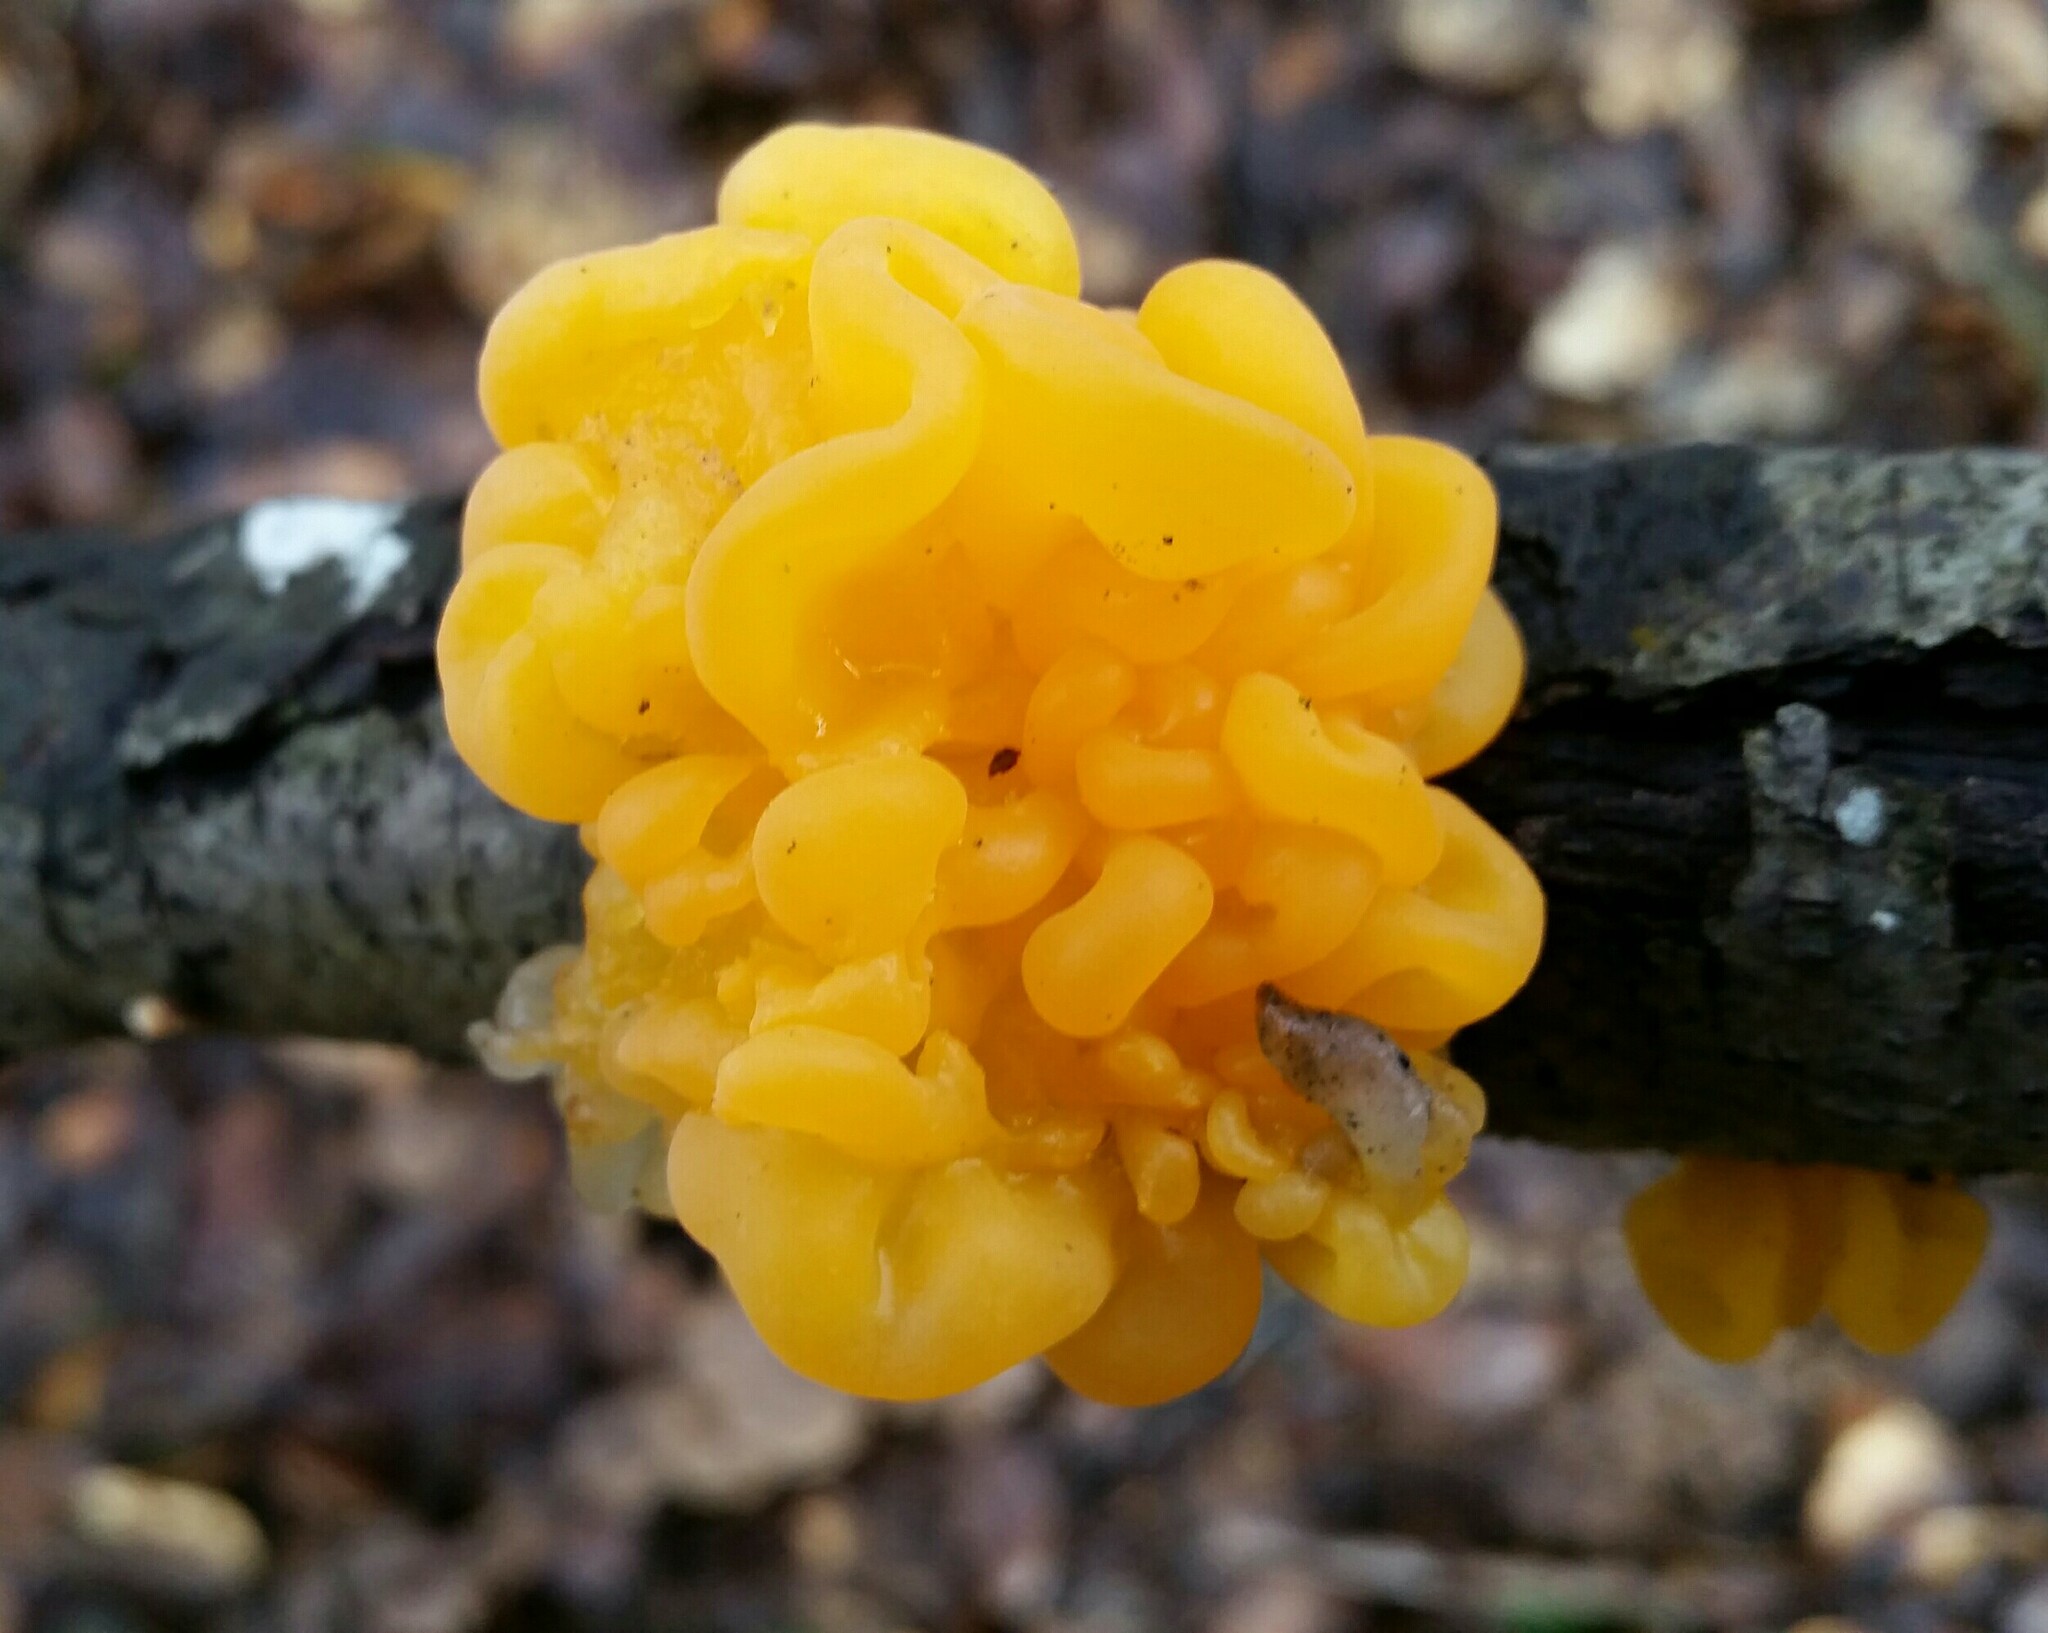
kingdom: Fungi
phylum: Basidiomycota
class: Tremellomycetes
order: Tremellales
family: Naemateliaceae
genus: Naematelia
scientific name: Naematelia aurantia
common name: Golden ear
